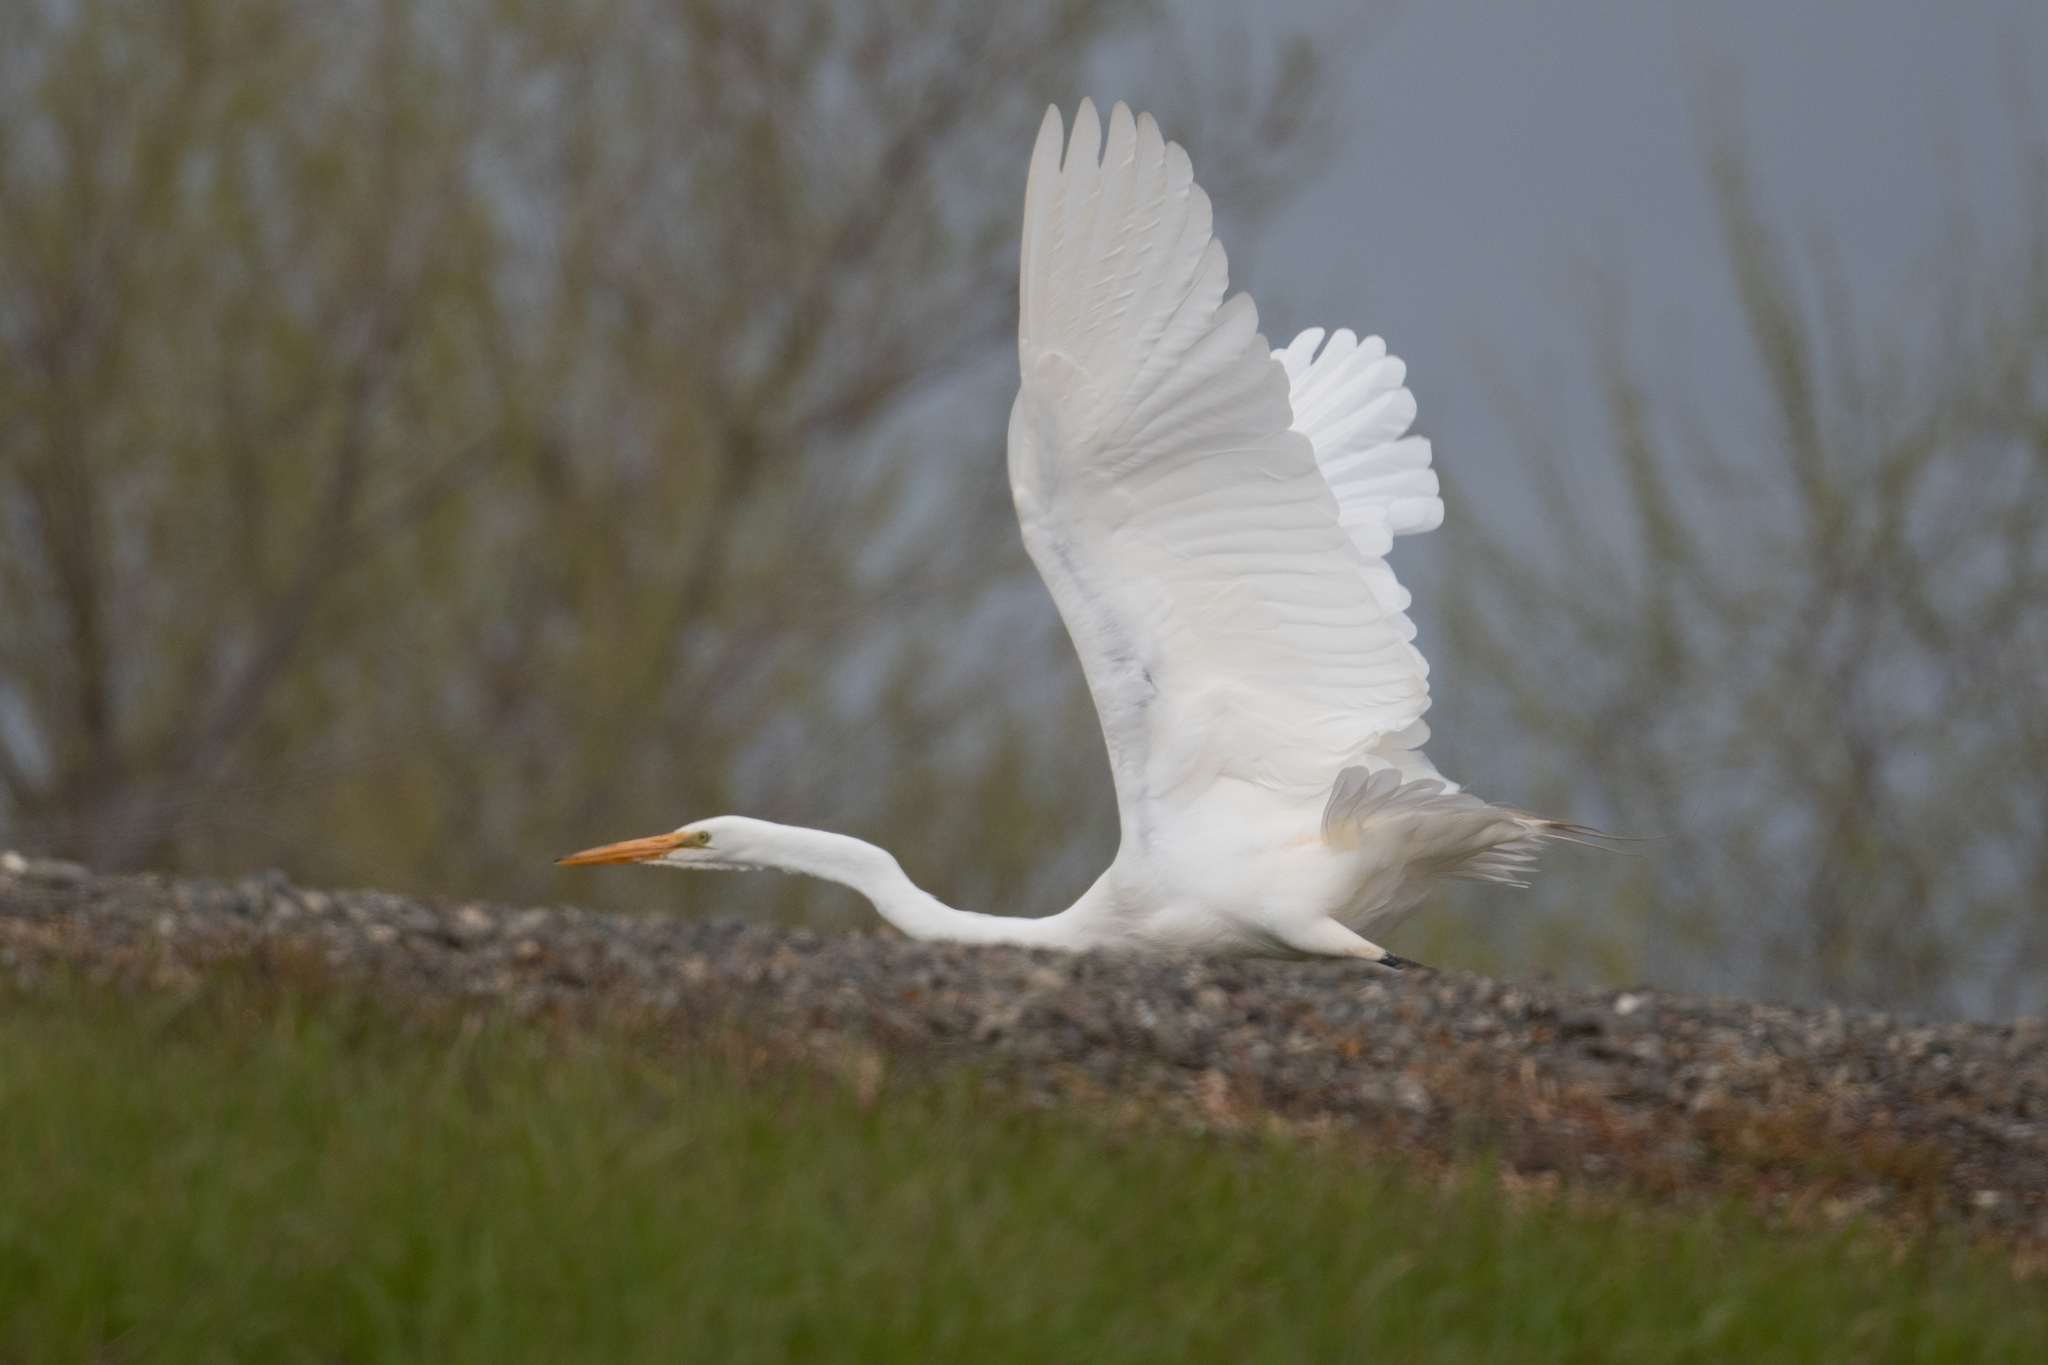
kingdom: Animalia
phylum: Chordata
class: Aves
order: Pelecaniformes
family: Ardeidae
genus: Ardea
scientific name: Ardea alba
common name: Great egret
